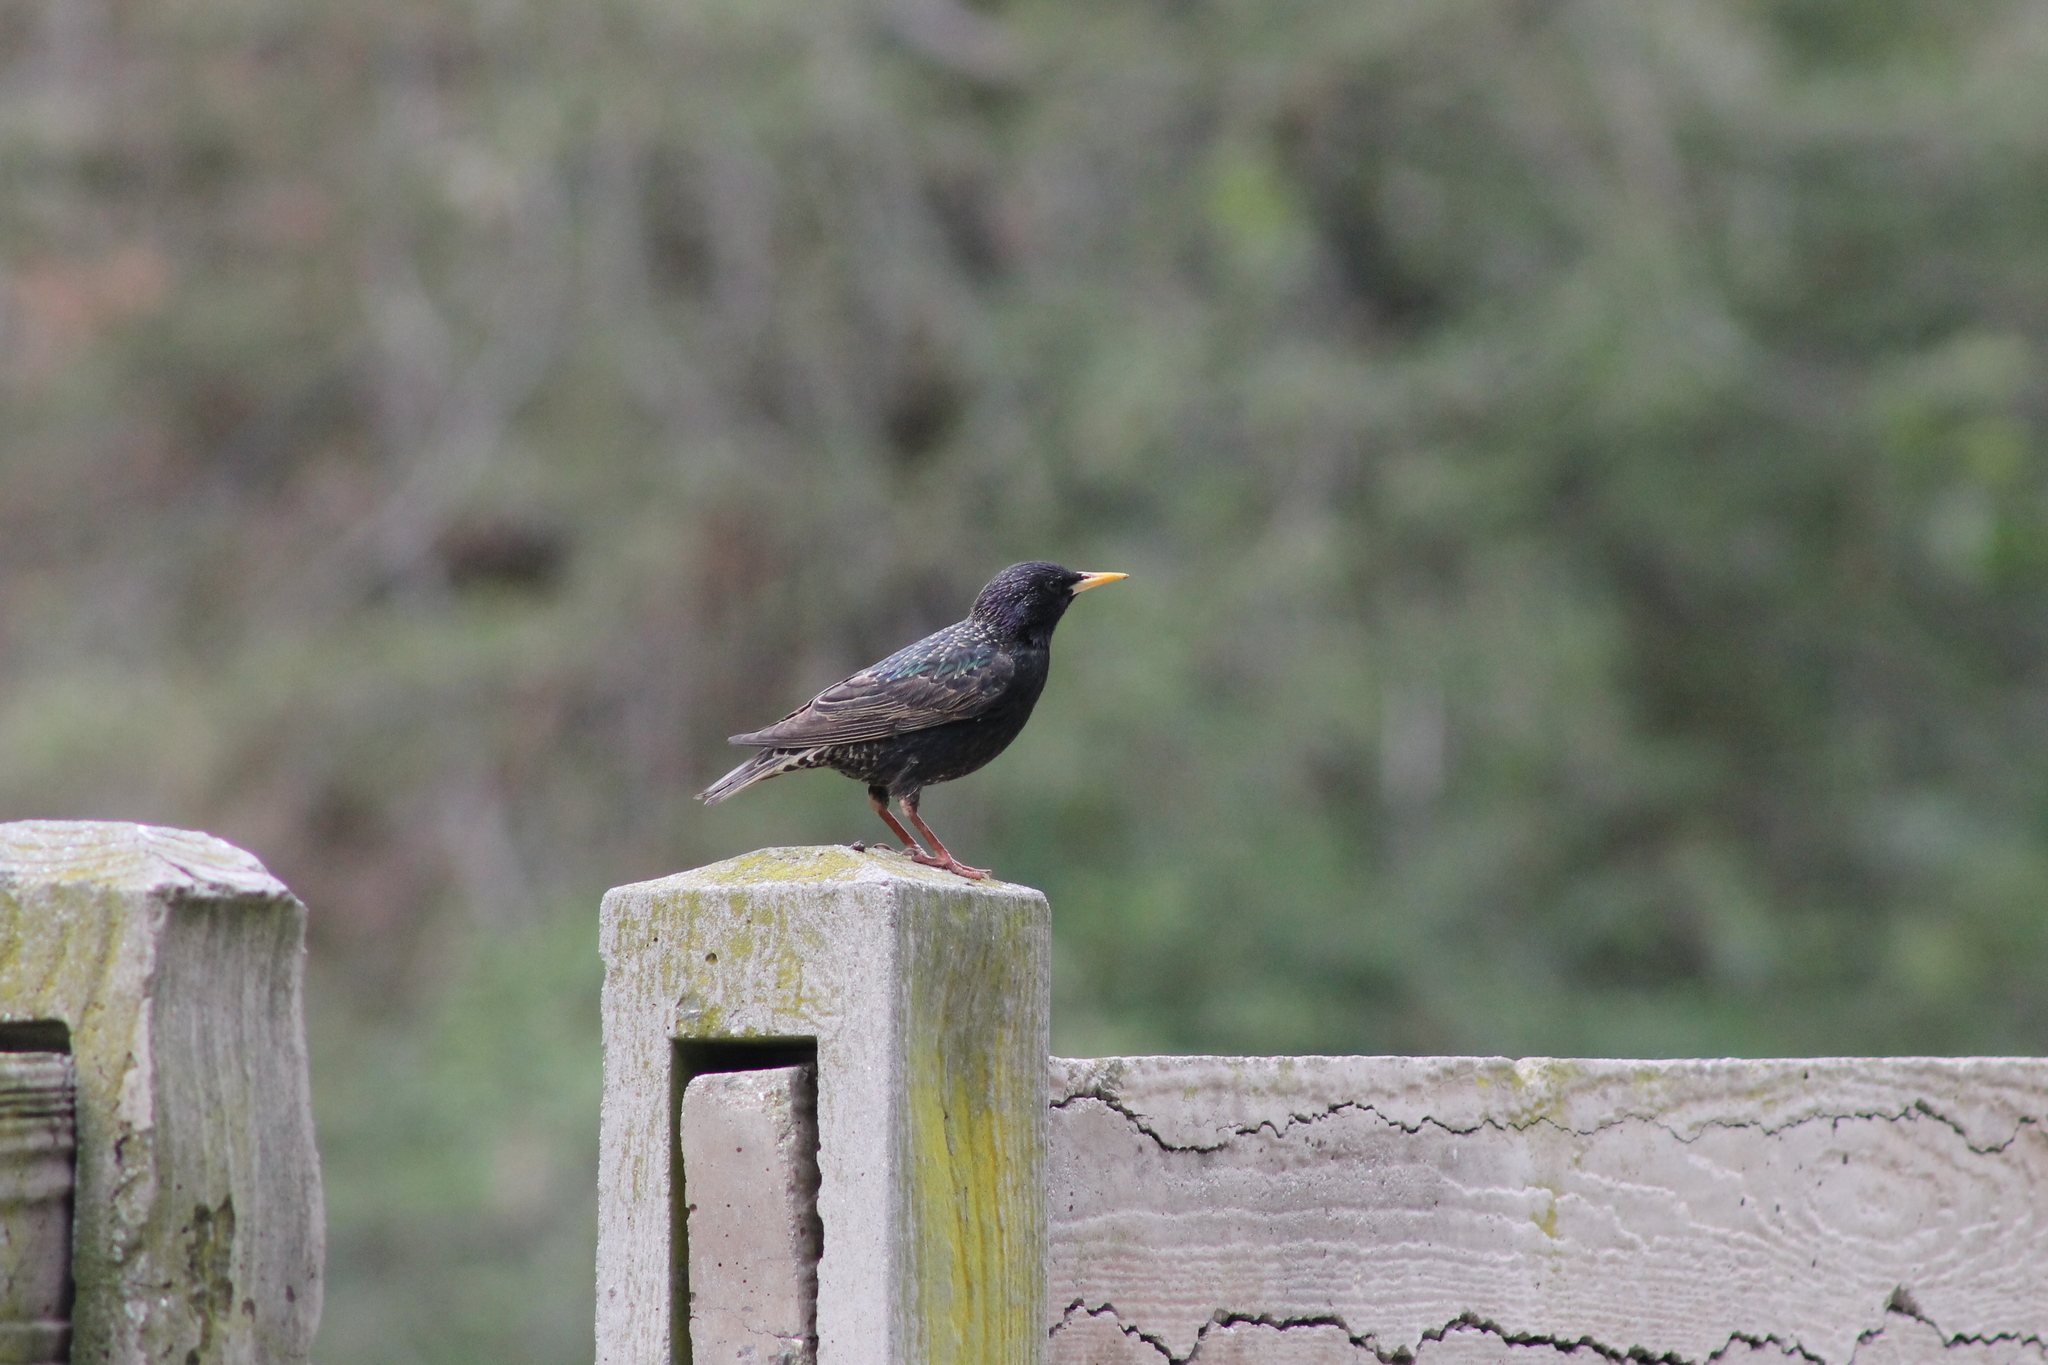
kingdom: Animalia
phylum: Chordata
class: Aves
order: Passeriformes
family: Sturnidae
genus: Sturnus
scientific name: Sturnus vulgaris
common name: Common starling
